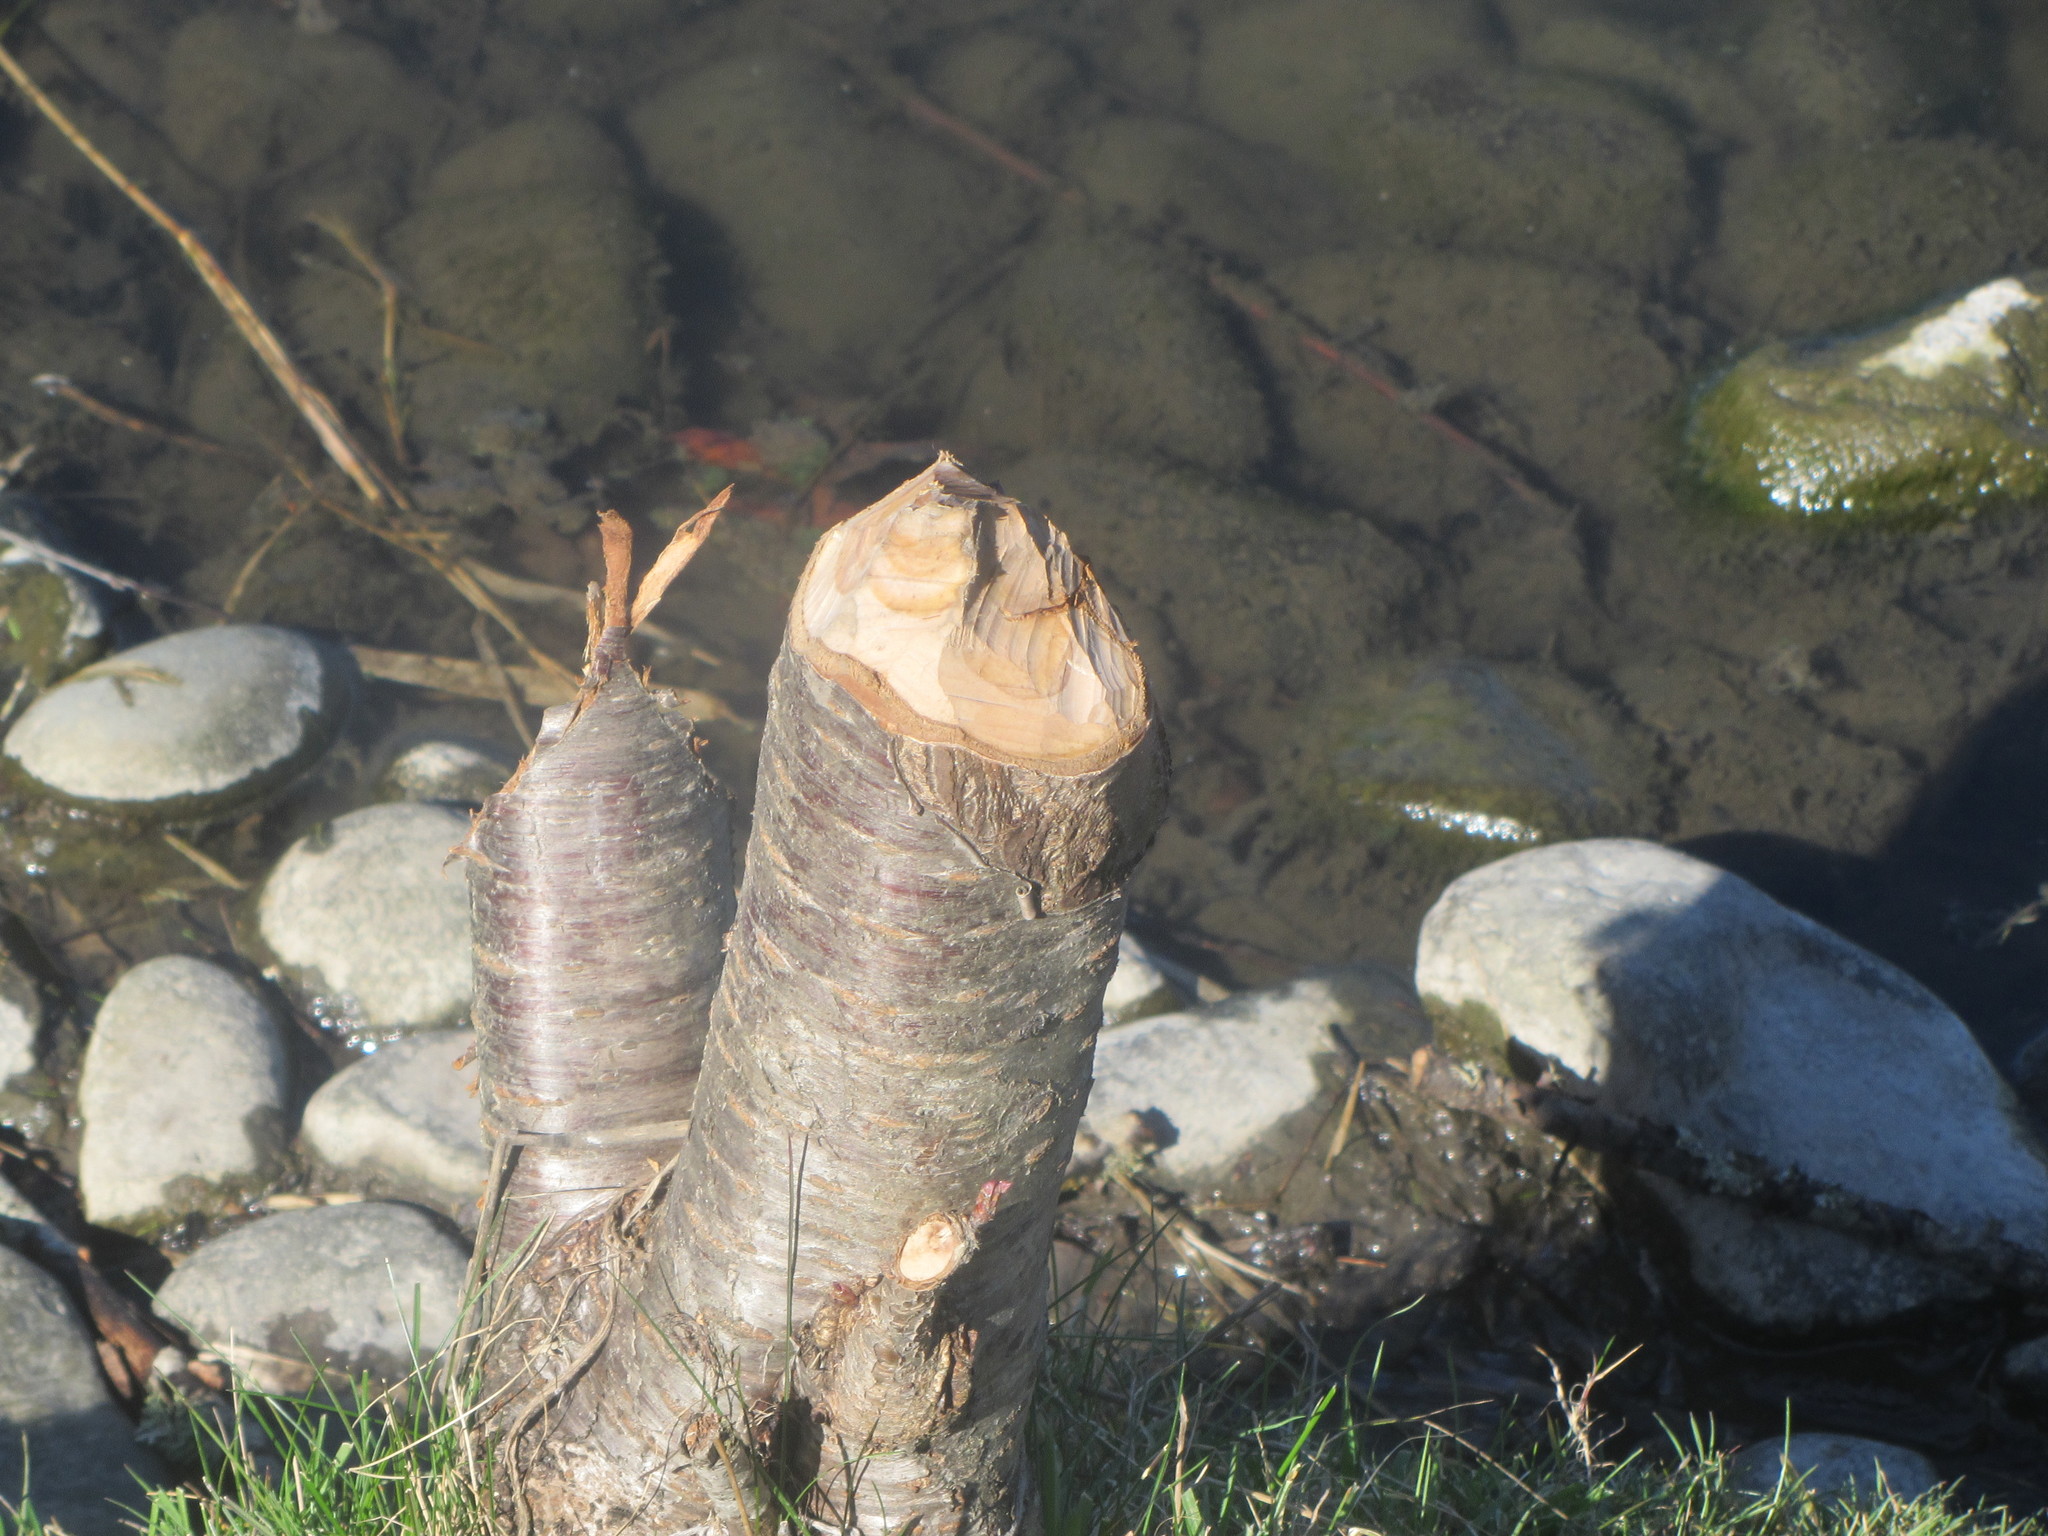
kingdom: Animalia
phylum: Chordata
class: Mammalia
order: Rodentia
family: Castoridae
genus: Castor
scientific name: Castor canadensis
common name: American beaver
